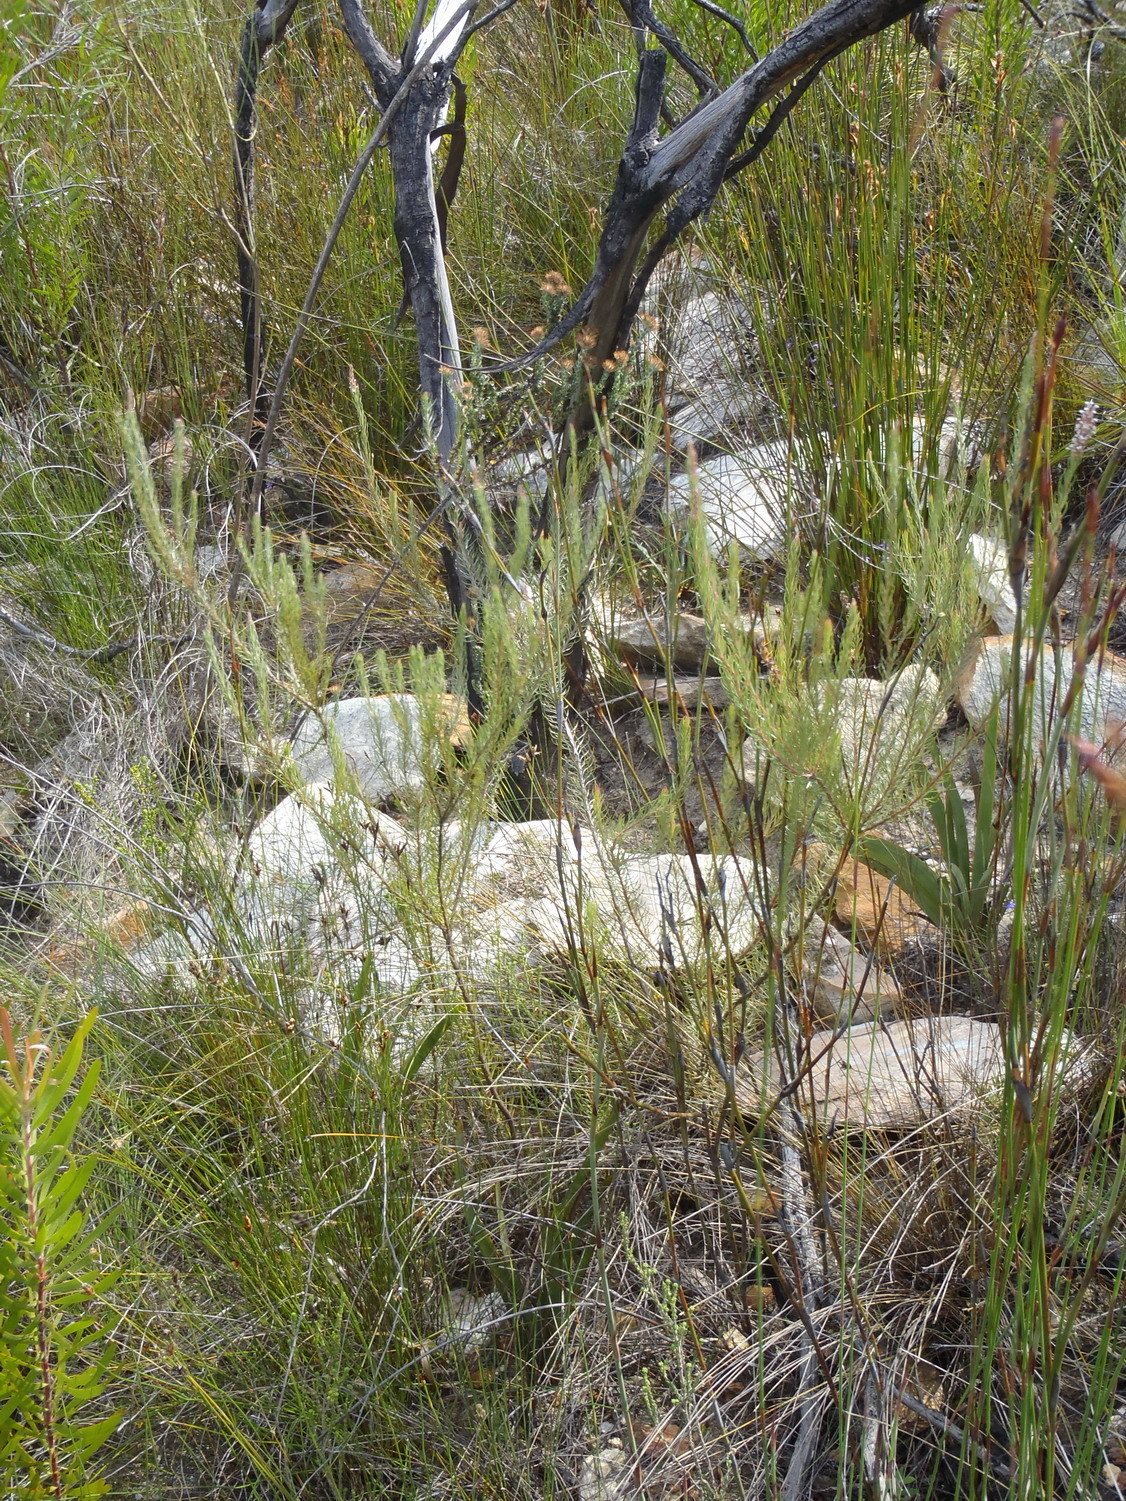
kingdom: Plantae
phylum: Tracheophyta
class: Magnoliopsida
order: Proteales
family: Proteaceae
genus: Spatalla
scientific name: Spatalla barbigera
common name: Fine-leaf spoon
